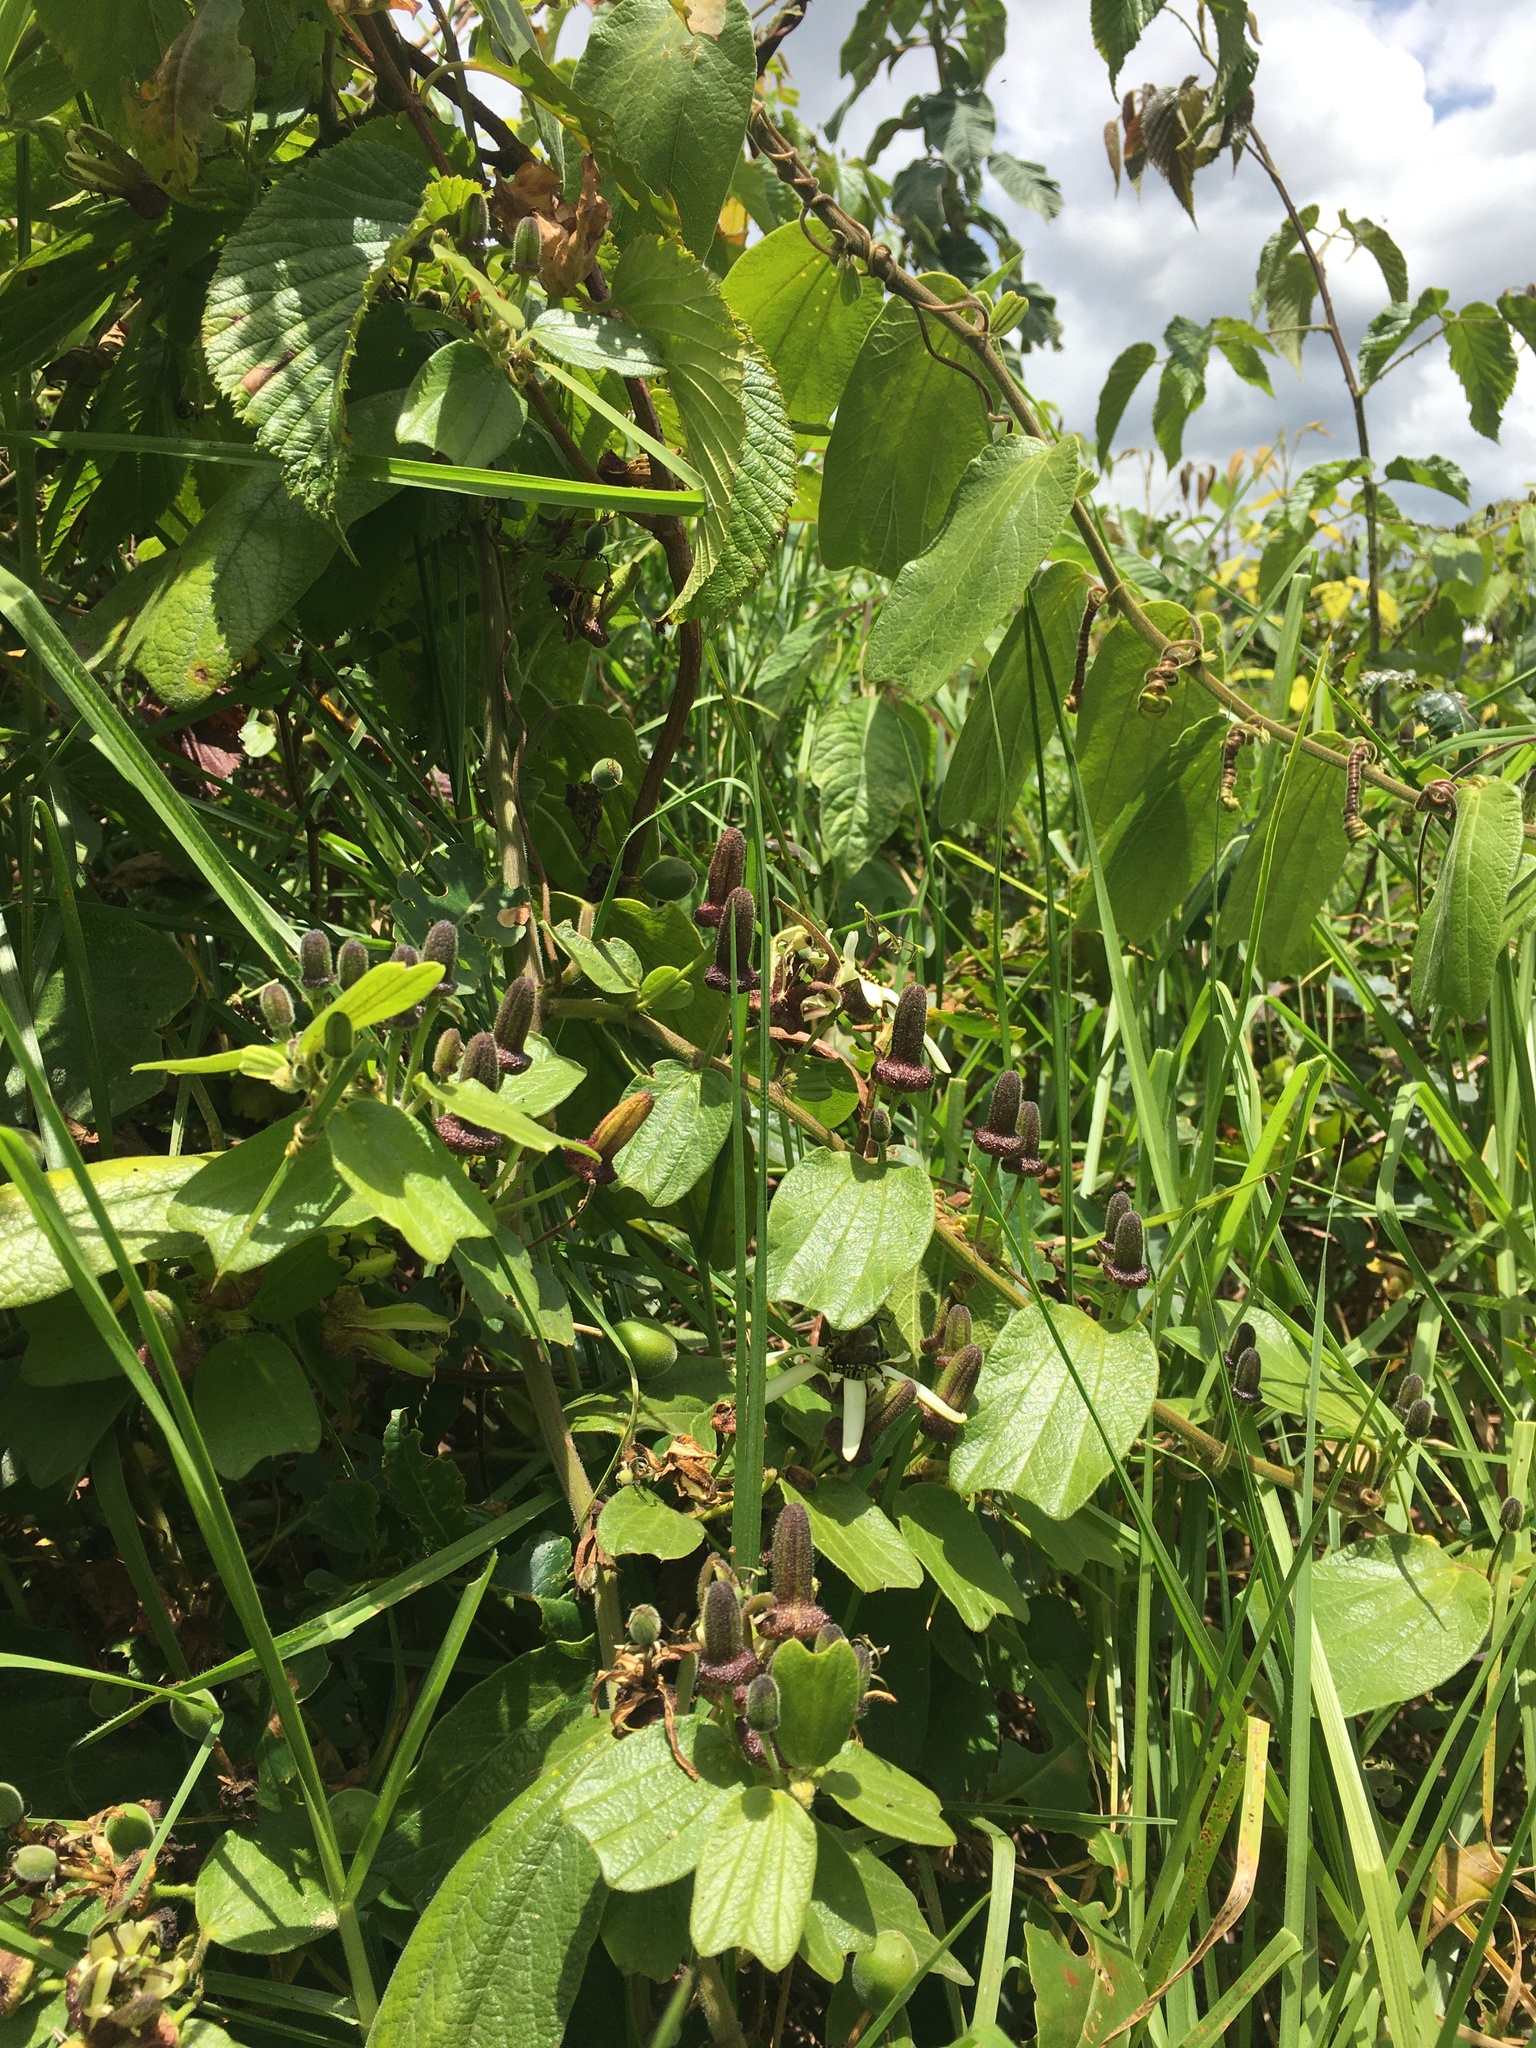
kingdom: Plantae
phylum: Tracheophyta
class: Magnoliopsida
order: Malpighiales
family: Passifloraceae
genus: Passiflora
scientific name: Passiflora bogotensis
